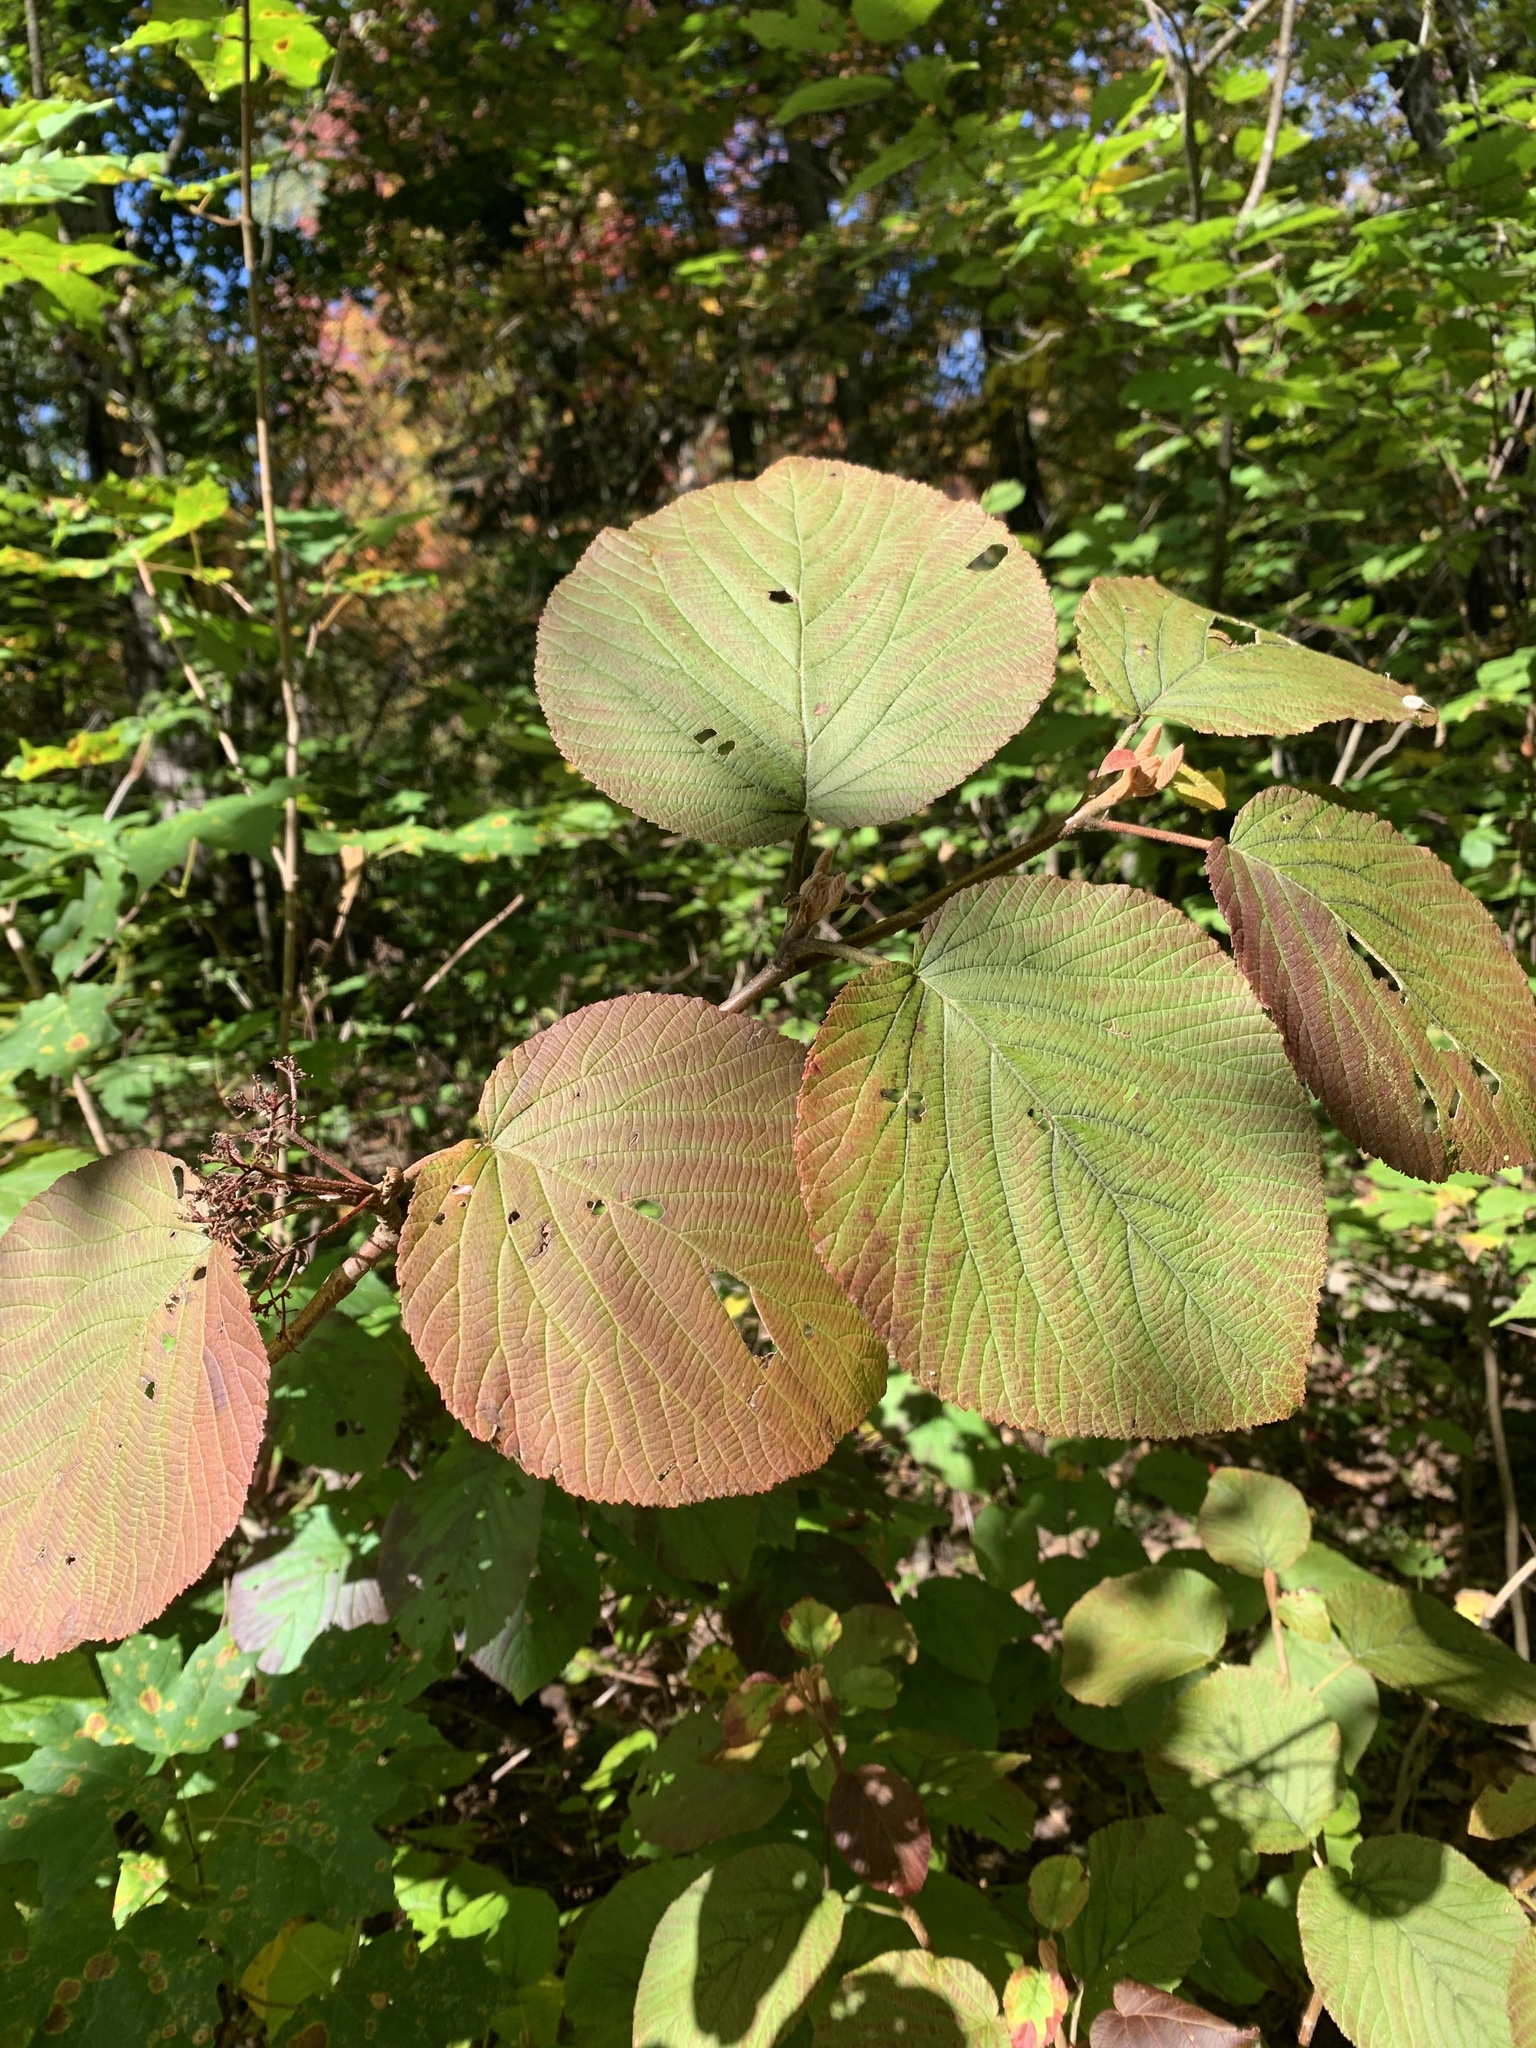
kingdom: Plantae
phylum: Tracheophyta
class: Magnoliopsida
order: Dipsacales
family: Viburnaceae
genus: Viburnum
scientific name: Viburnum lantanoides
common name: Hobblebush
